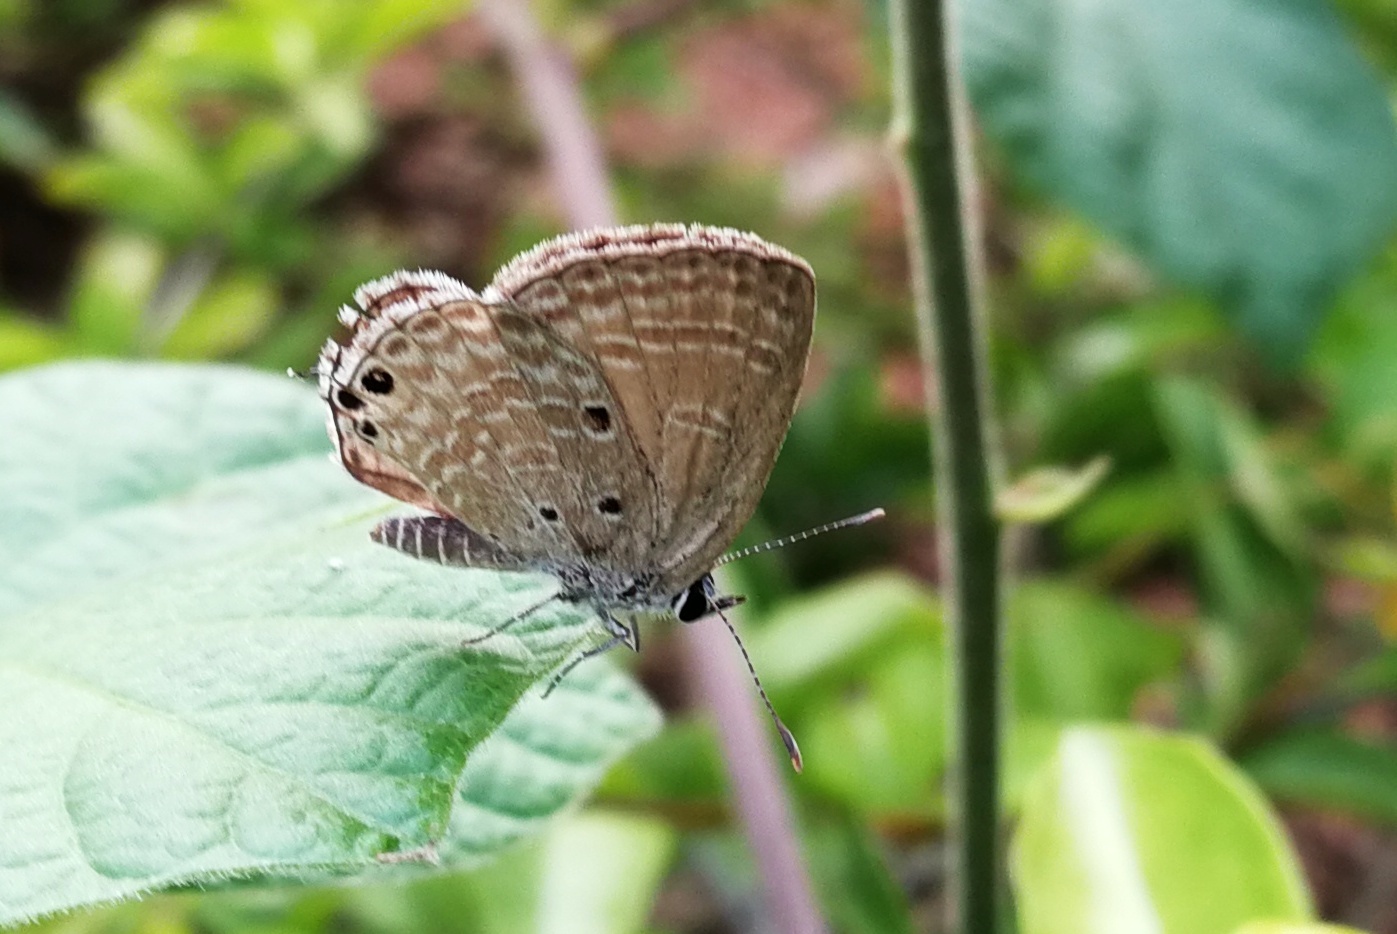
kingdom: Animalia
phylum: Arthropoda
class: Insecta
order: Lepidoptera
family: Lycaenidae
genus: Luthrodes
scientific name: Luthrodes pandava
